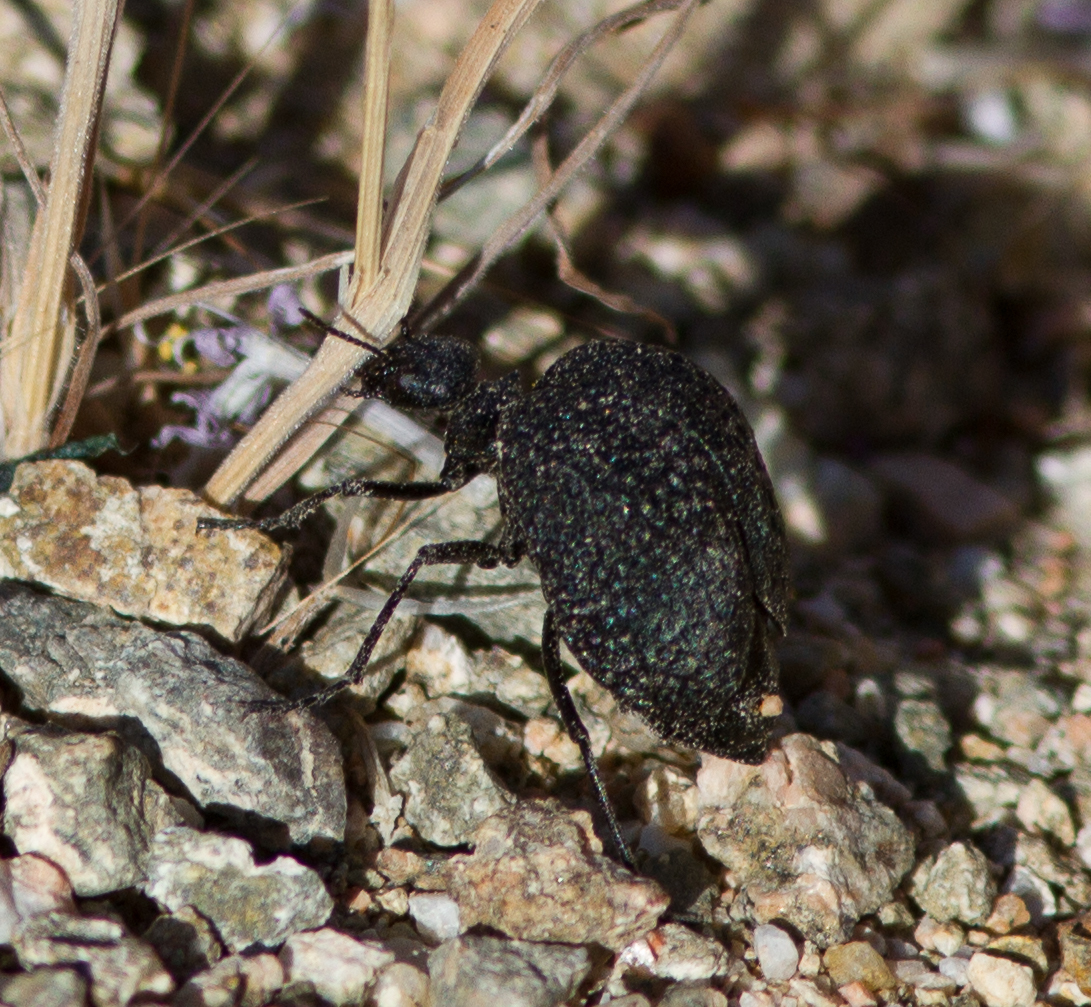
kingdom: Animalia
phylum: Arthropoda
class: Insecta
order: Coleoptera
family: Meloidae
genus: Cysteodemus
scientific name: Cysteodemus armatus
